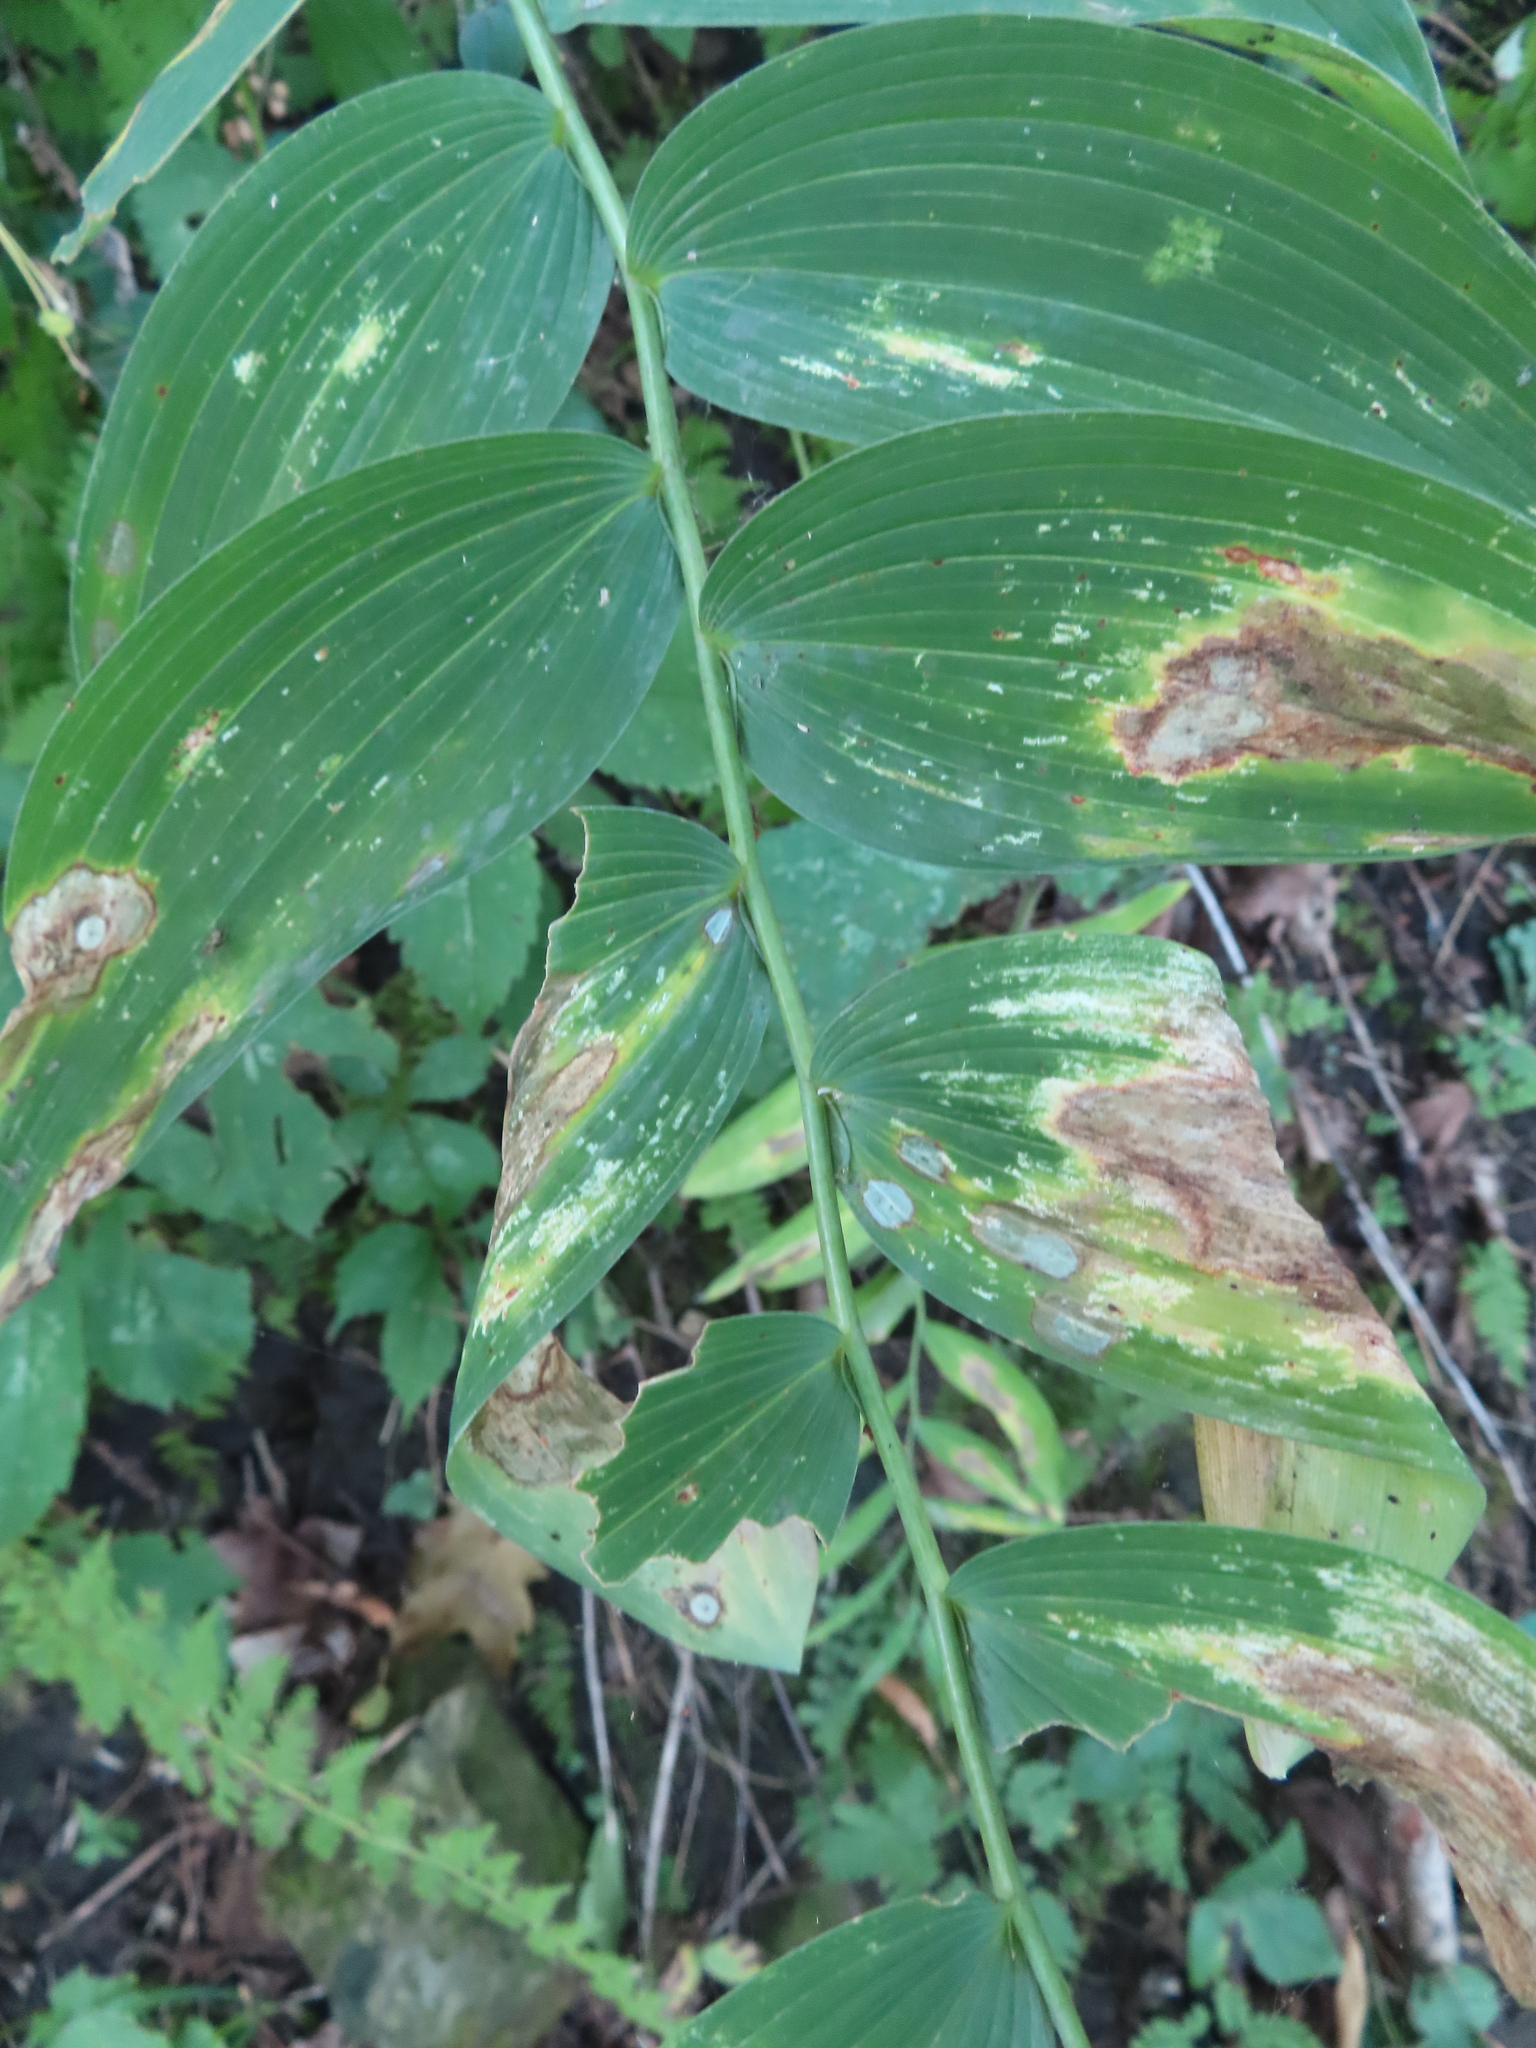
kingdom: Plantae
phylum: Tracheophyta
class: Liliopsida
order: Asparagales
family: Asparagaceae
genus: Polygonatum
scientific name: Polygonatum biflorum
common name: American solomon's-seal
